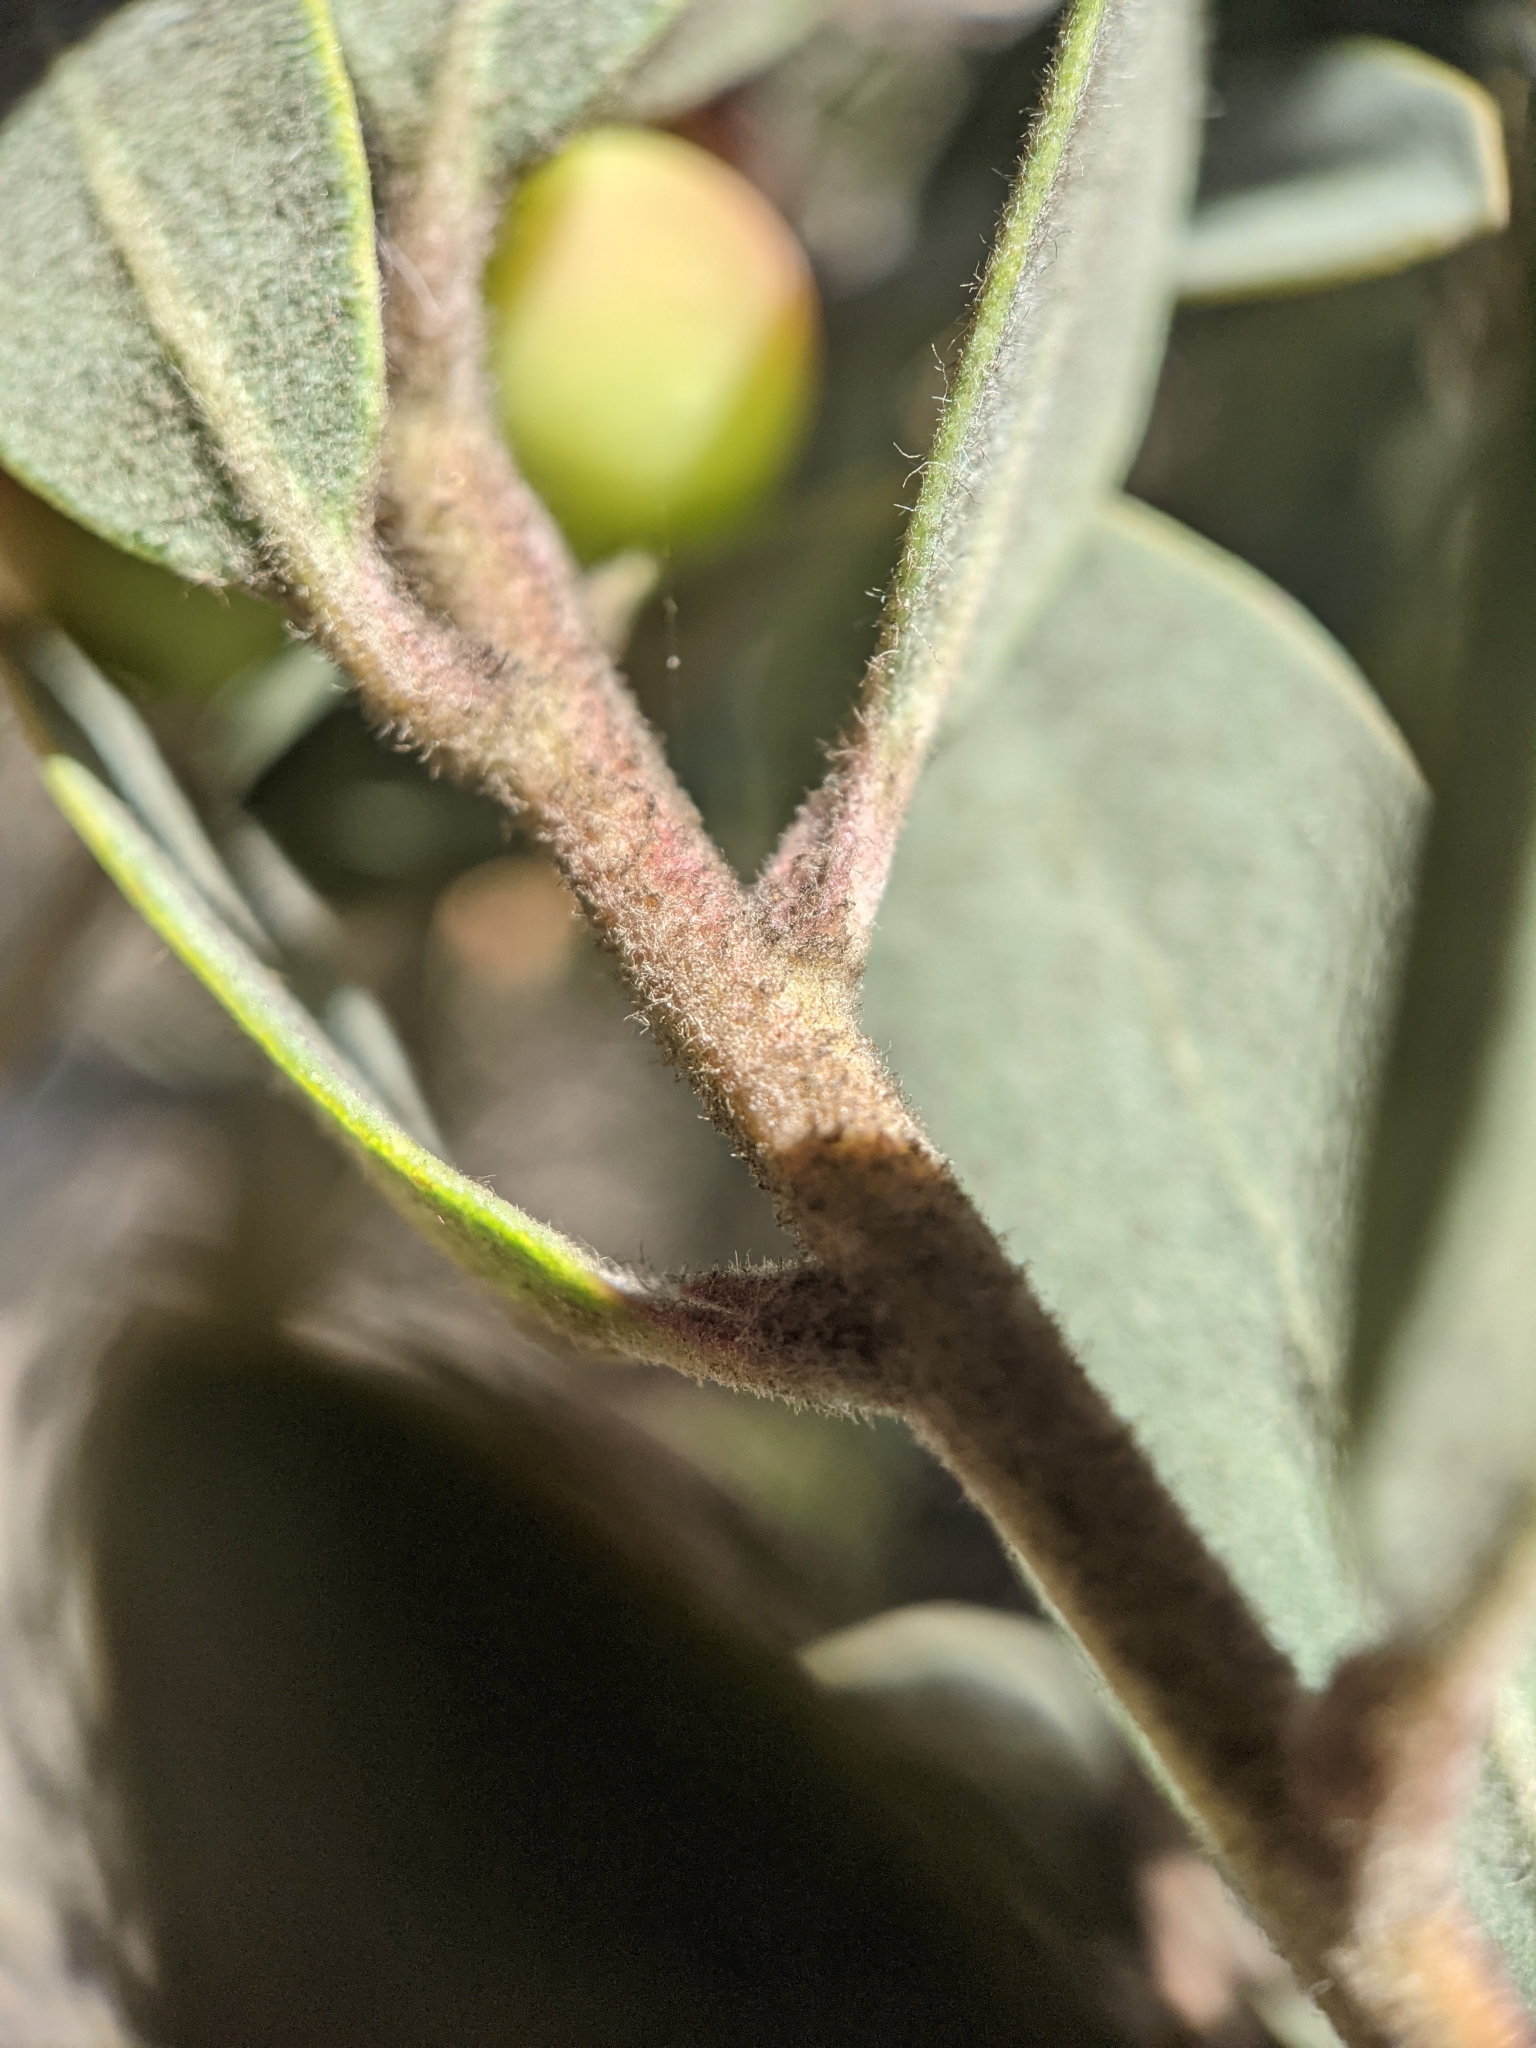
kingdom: Plantae
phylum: Tracheophyta
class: Magnoliopsida
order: Ericales
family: Ericaceae
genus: Arctostaphylos
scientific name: Arctostaphylos silvicola
